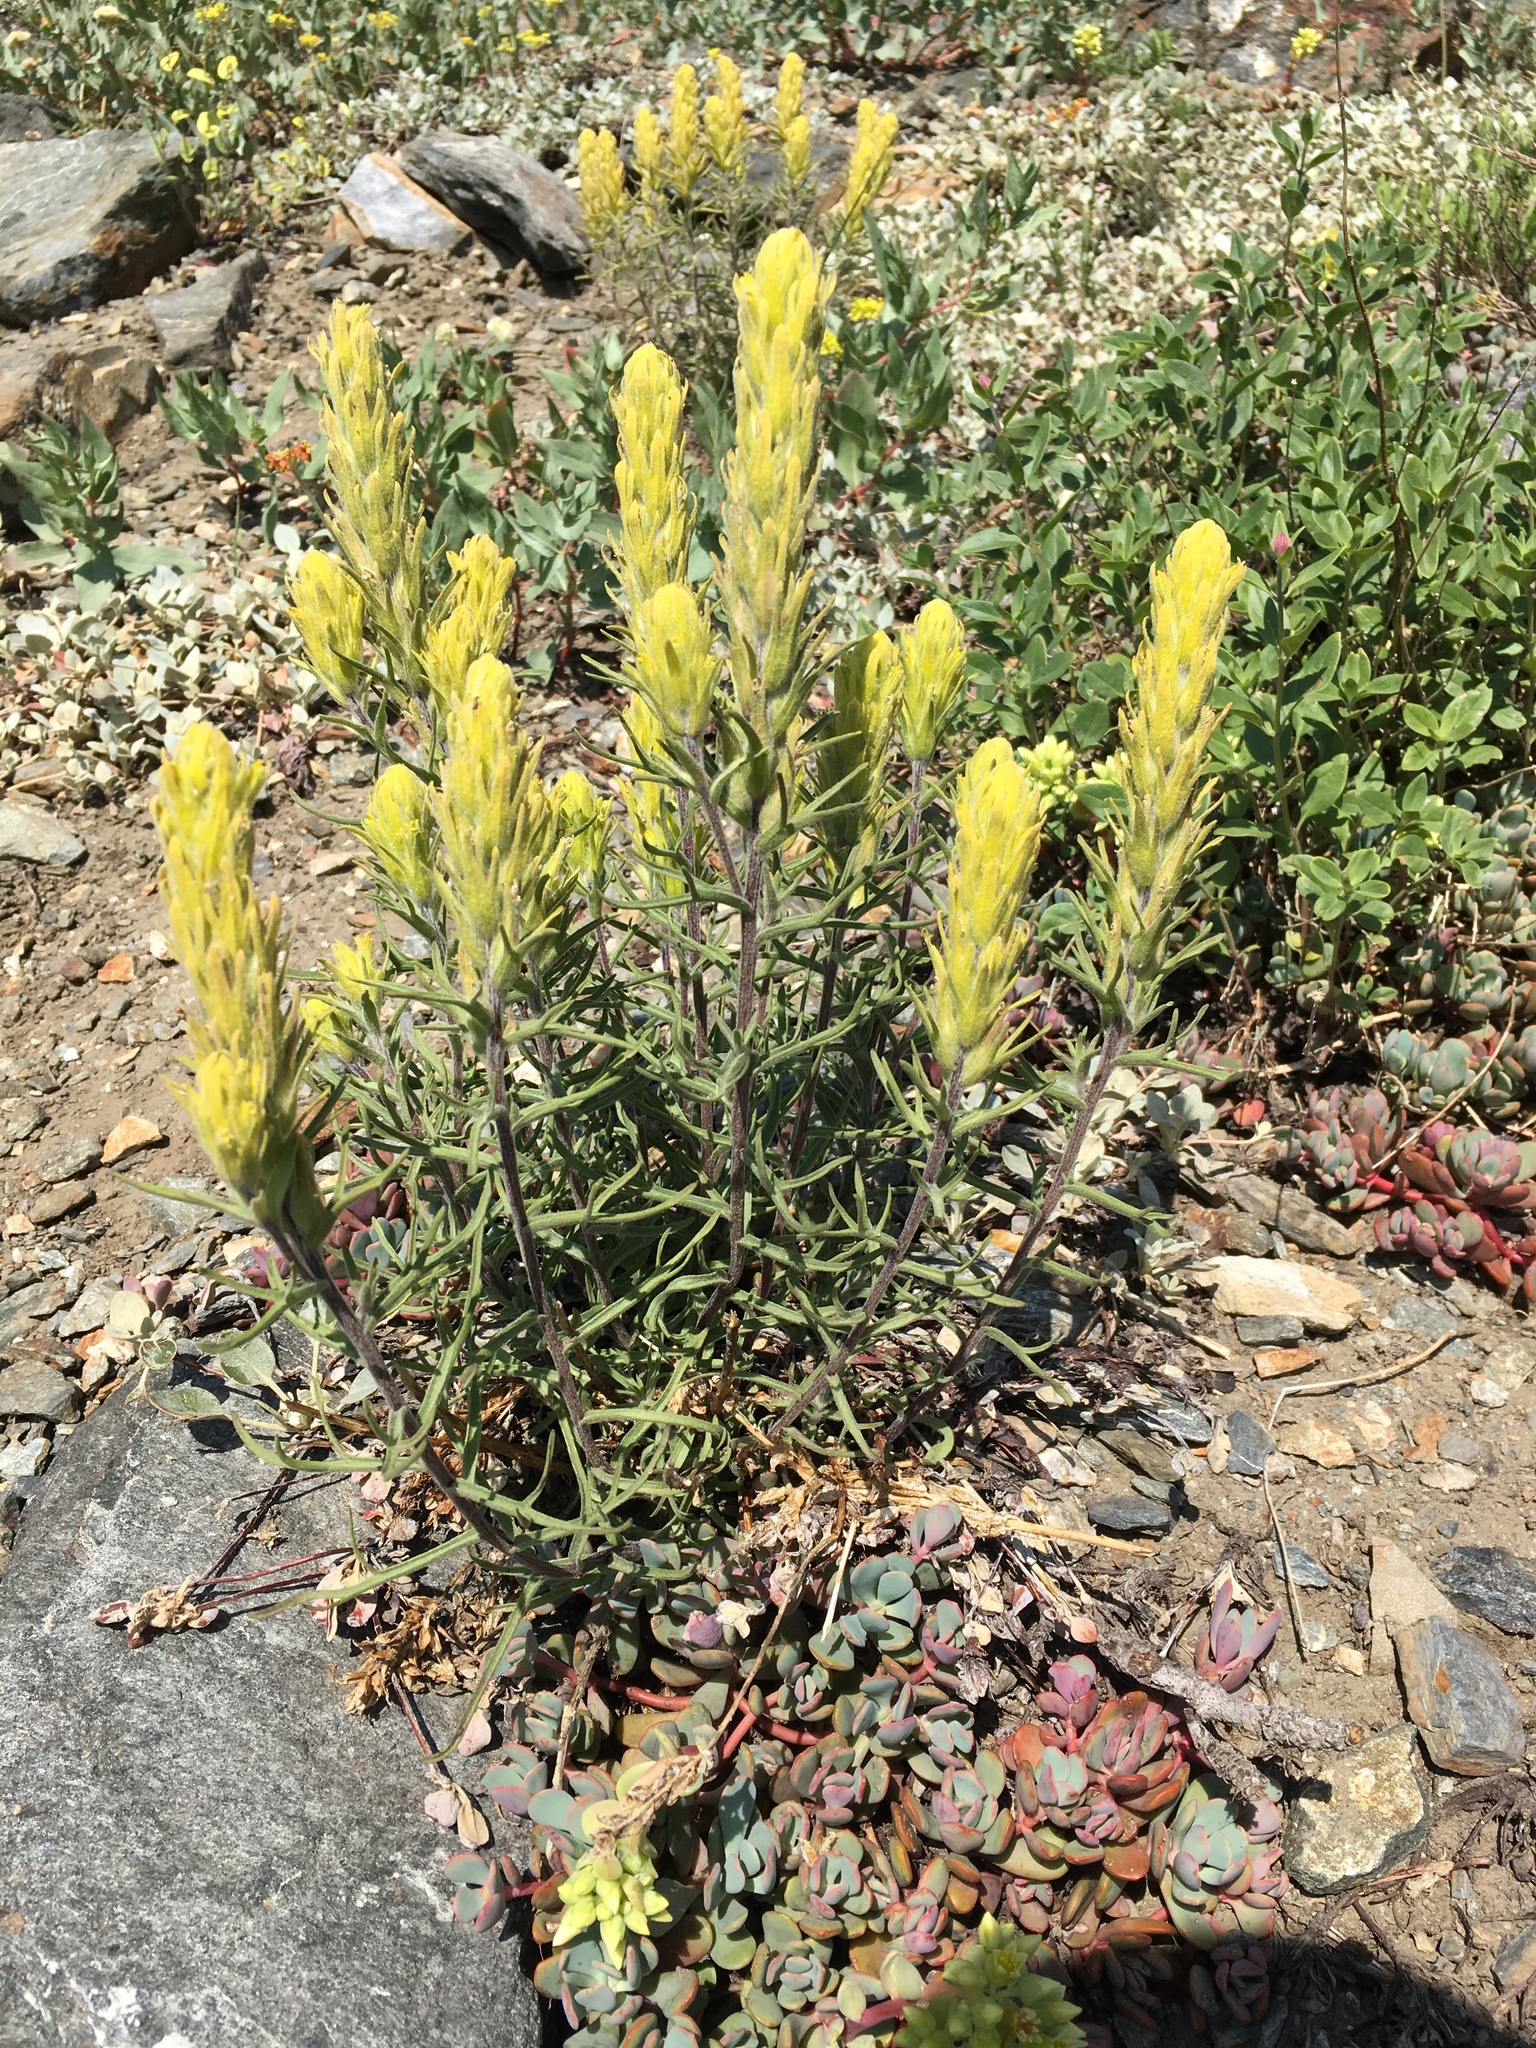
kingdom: Plantae
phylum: Tracheophyta
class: Magnoliopsida
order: Lamiales
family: Orobanchaceae
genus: Castilleja
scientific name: Castilleja arachnoidea
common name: Cobwebby indian paintbrush
